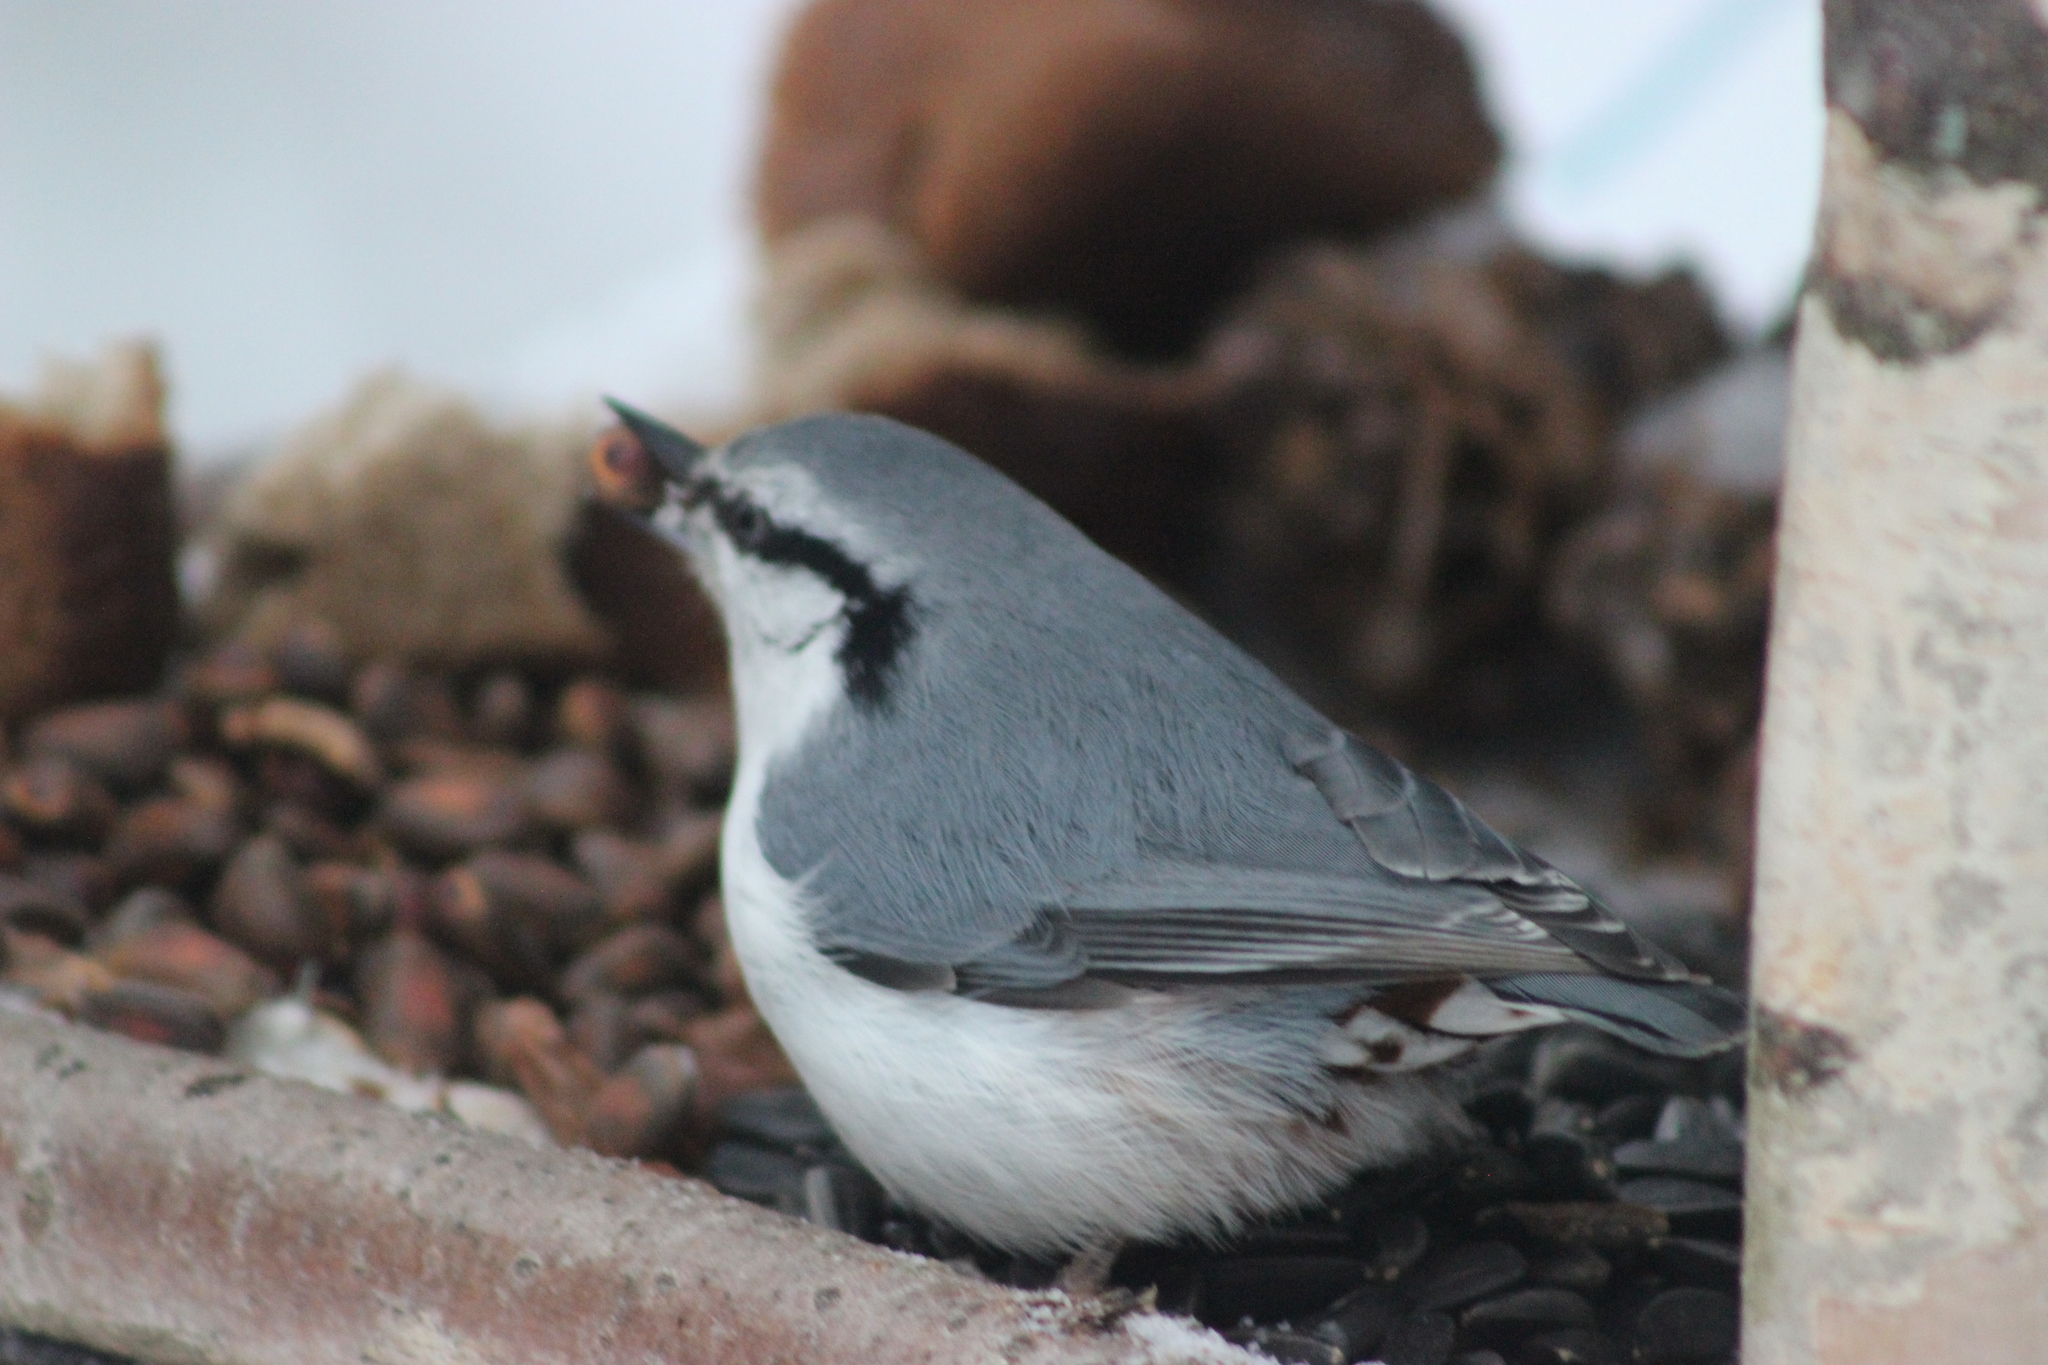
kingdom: Animalia
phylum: Chordata
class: Aves
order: Passeriformes
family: Sittidae
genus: Sitta
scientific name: Sitta europaea
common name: Eurasian nuthatch
